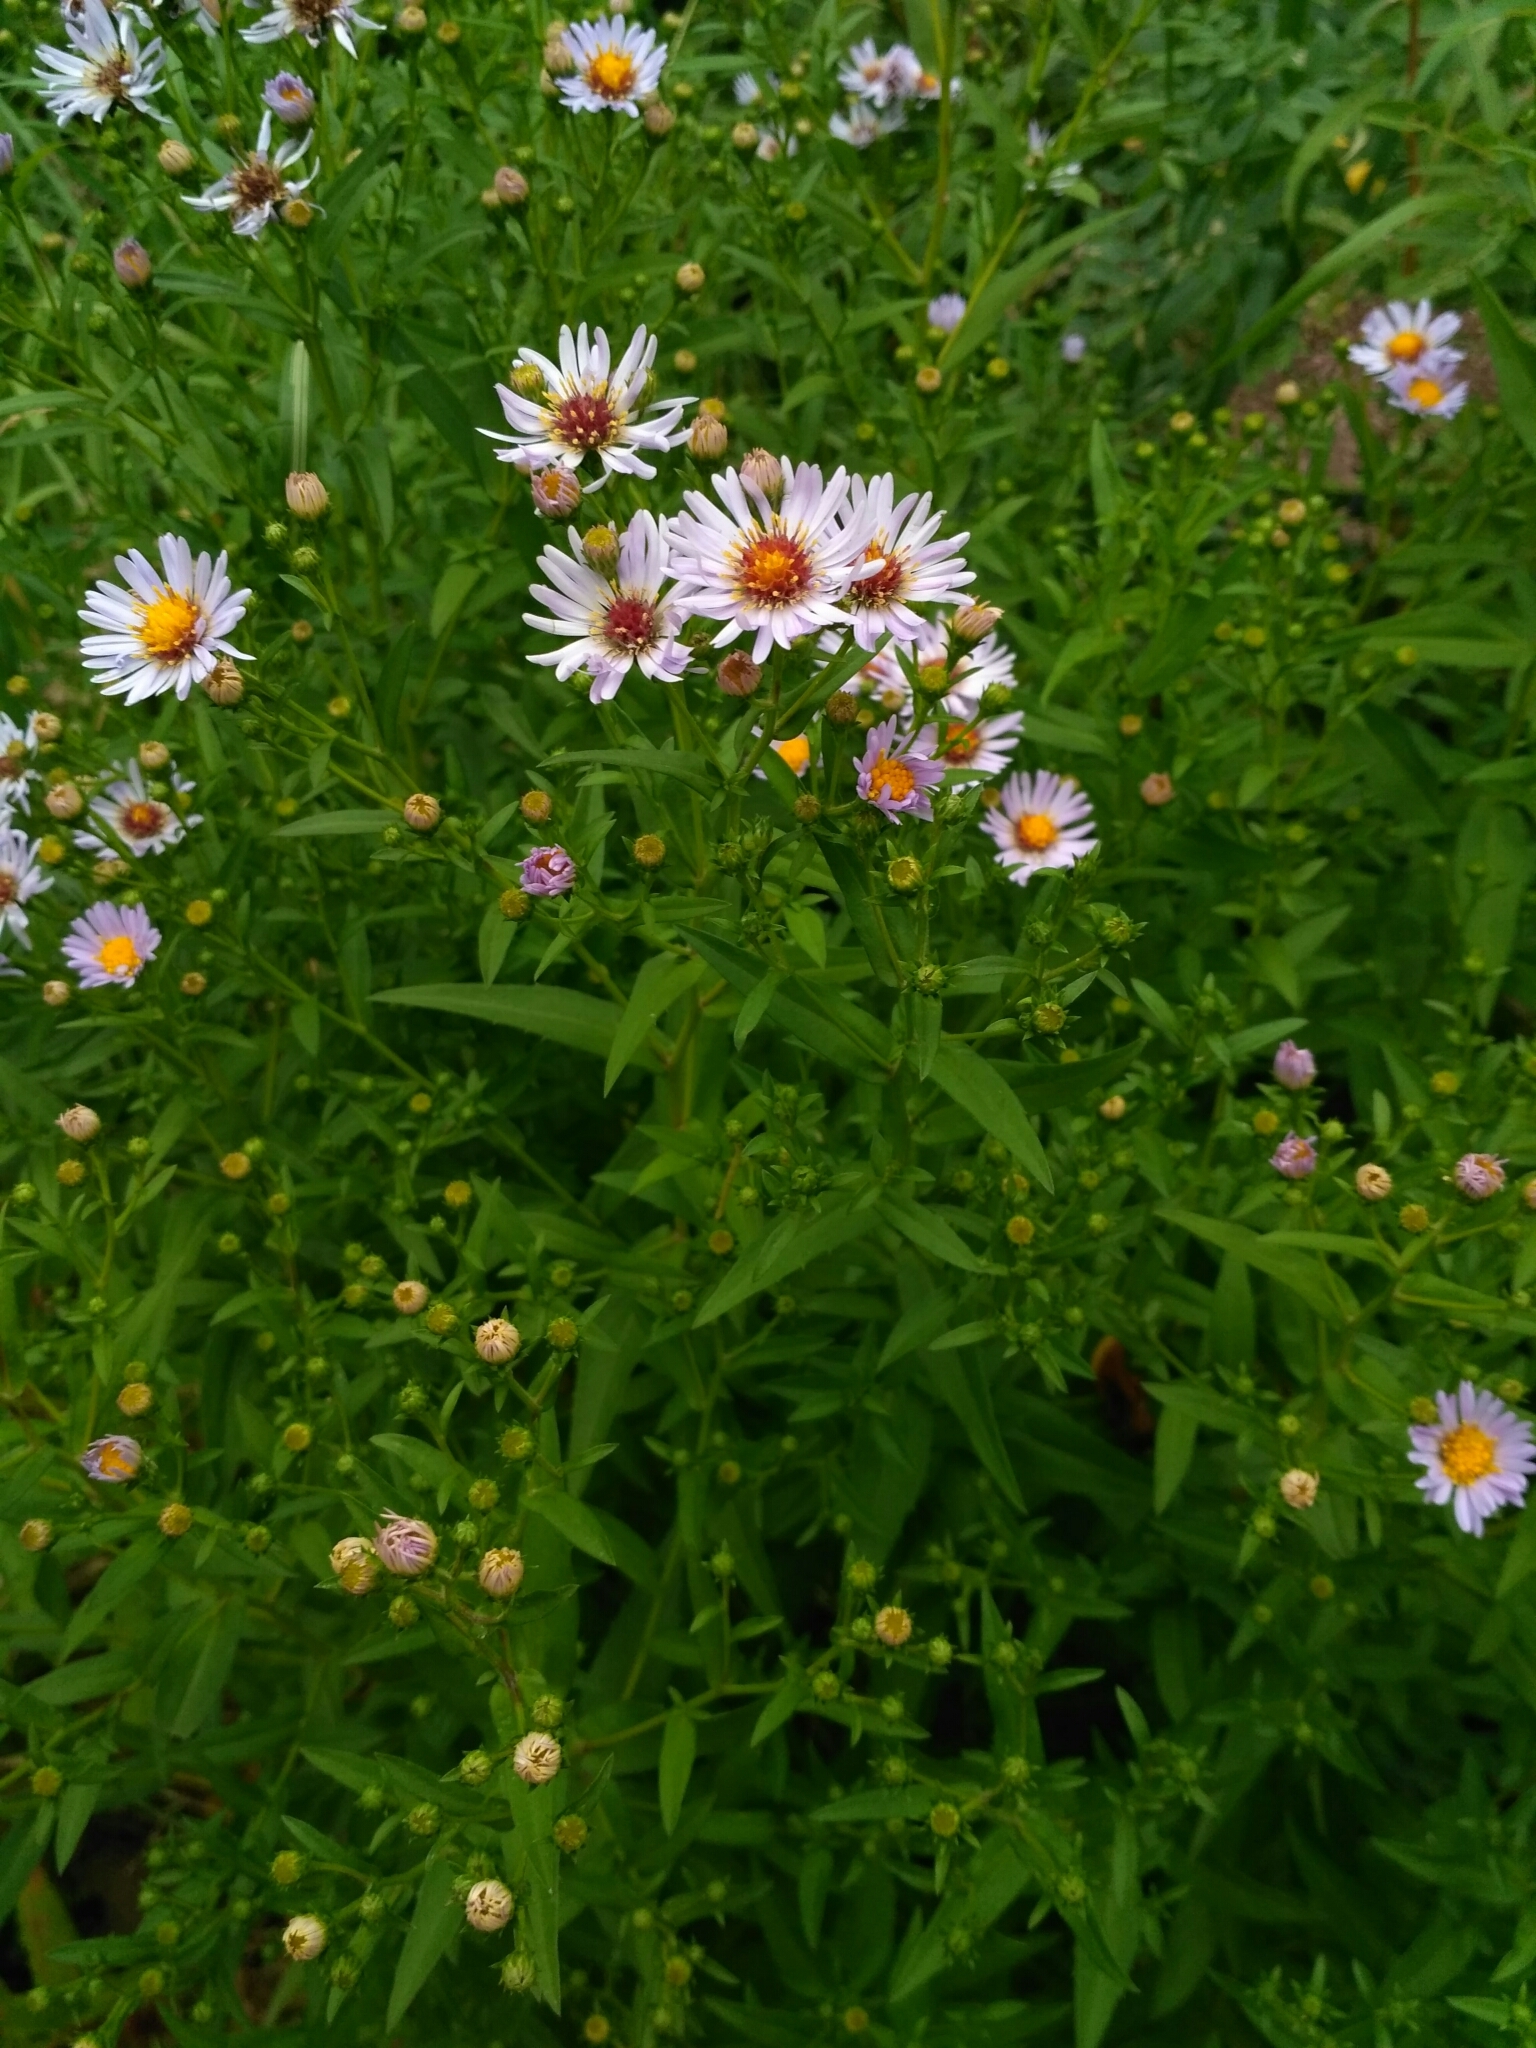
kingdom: Plantae
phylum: Tracheophyta
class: Magnoliopsida
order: Asterales
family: Asteraceae
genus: Symphyotrichum
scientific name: Symphyotrichum salignum
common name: Common michaelmas daisy
